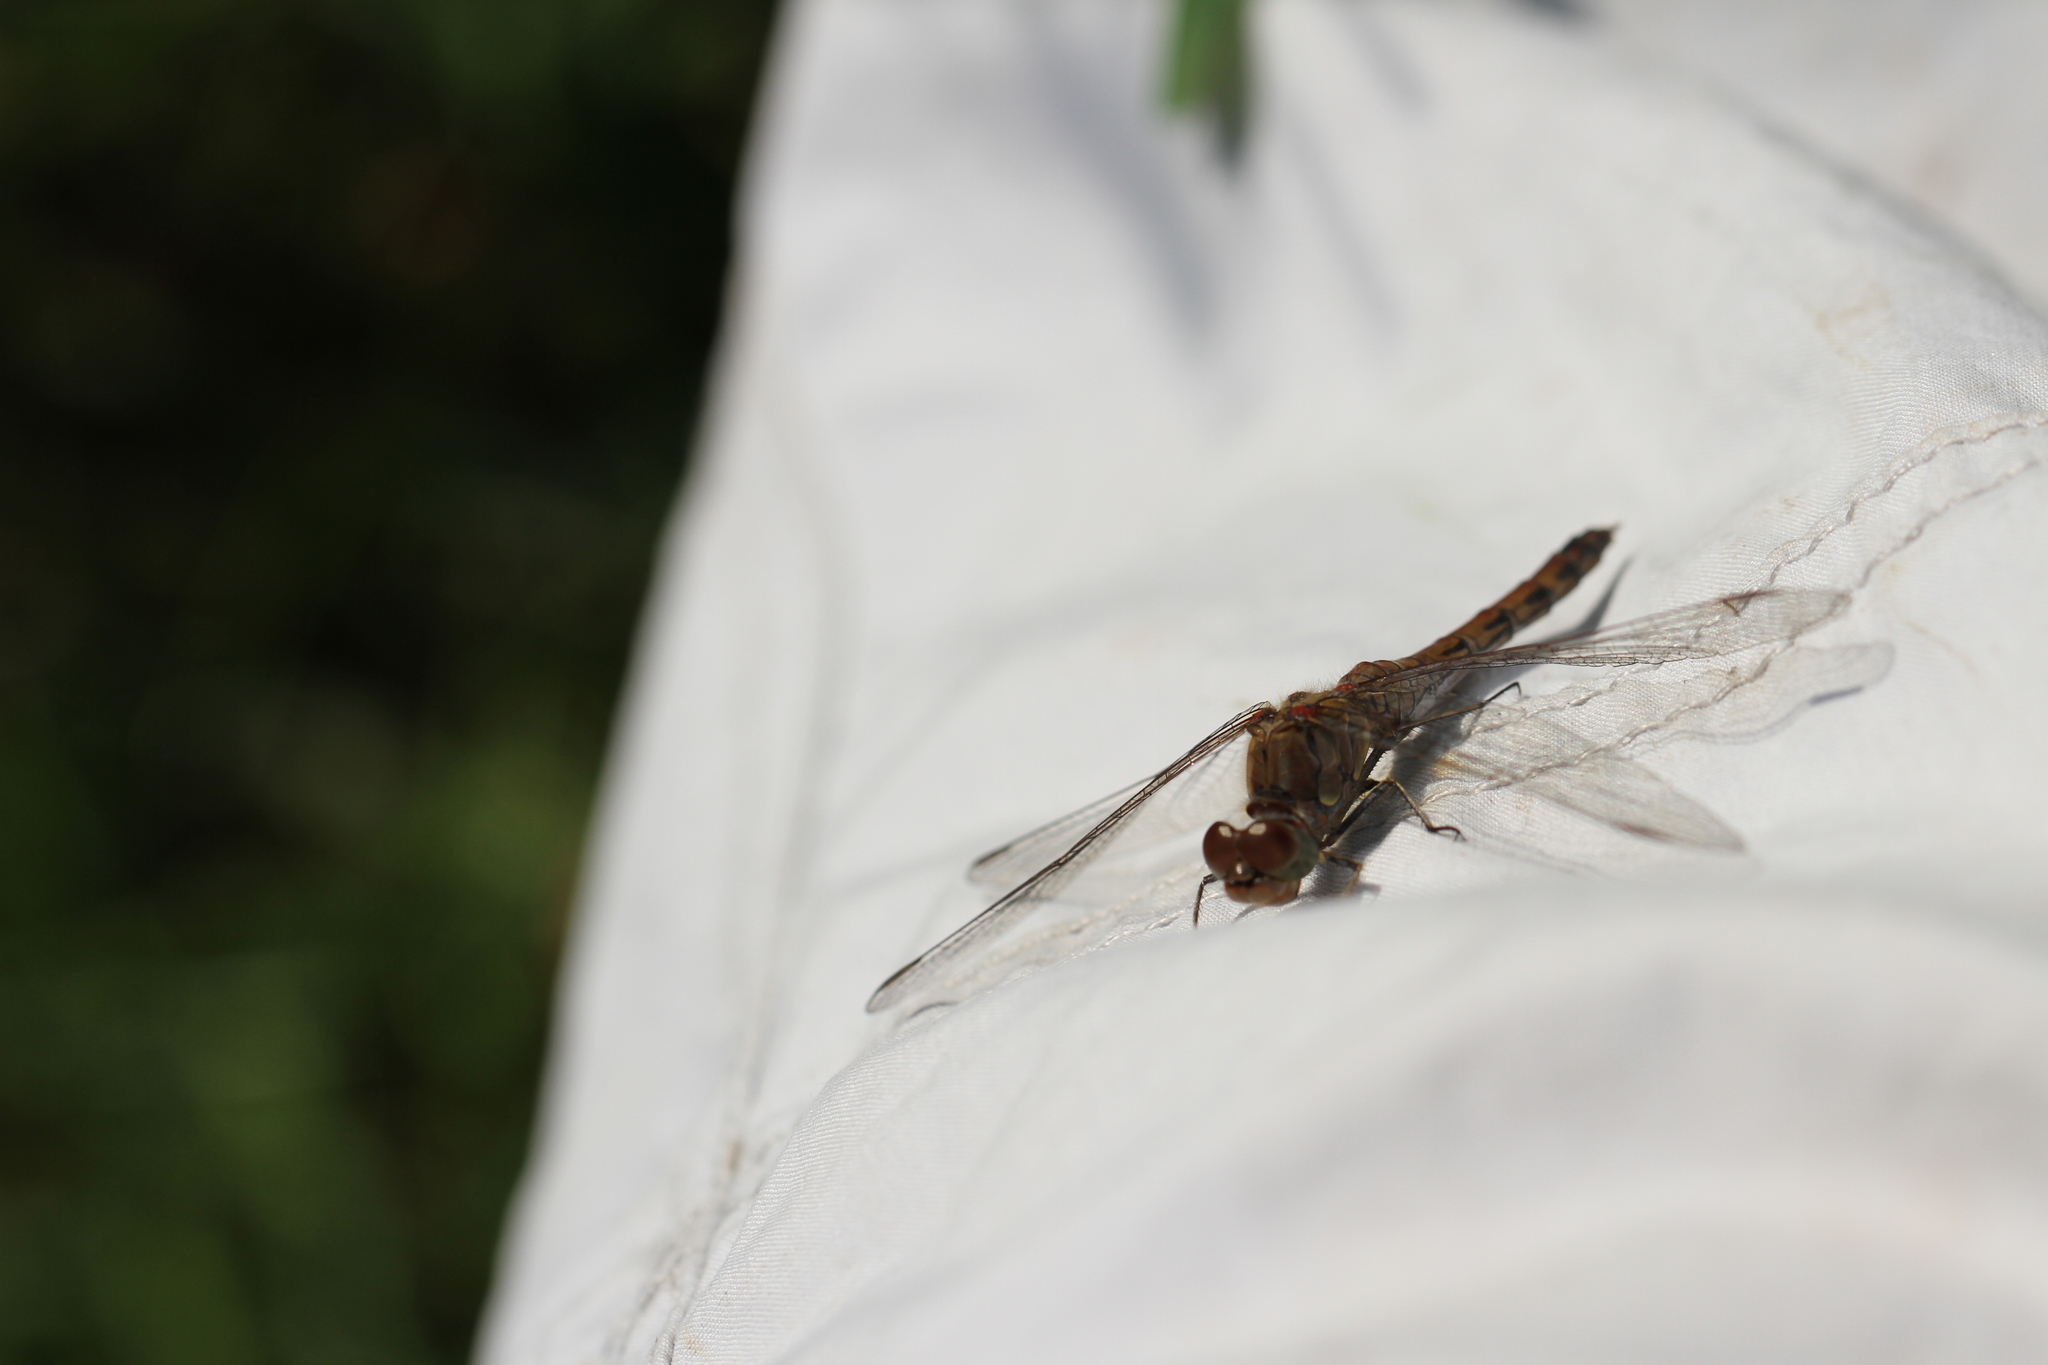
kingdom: Animalia
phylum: Arthropoda
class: Insecta
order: Odonata
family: Libellulidae
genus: Sympetrum
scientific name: Sympetrum striolatum
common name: Common darter
